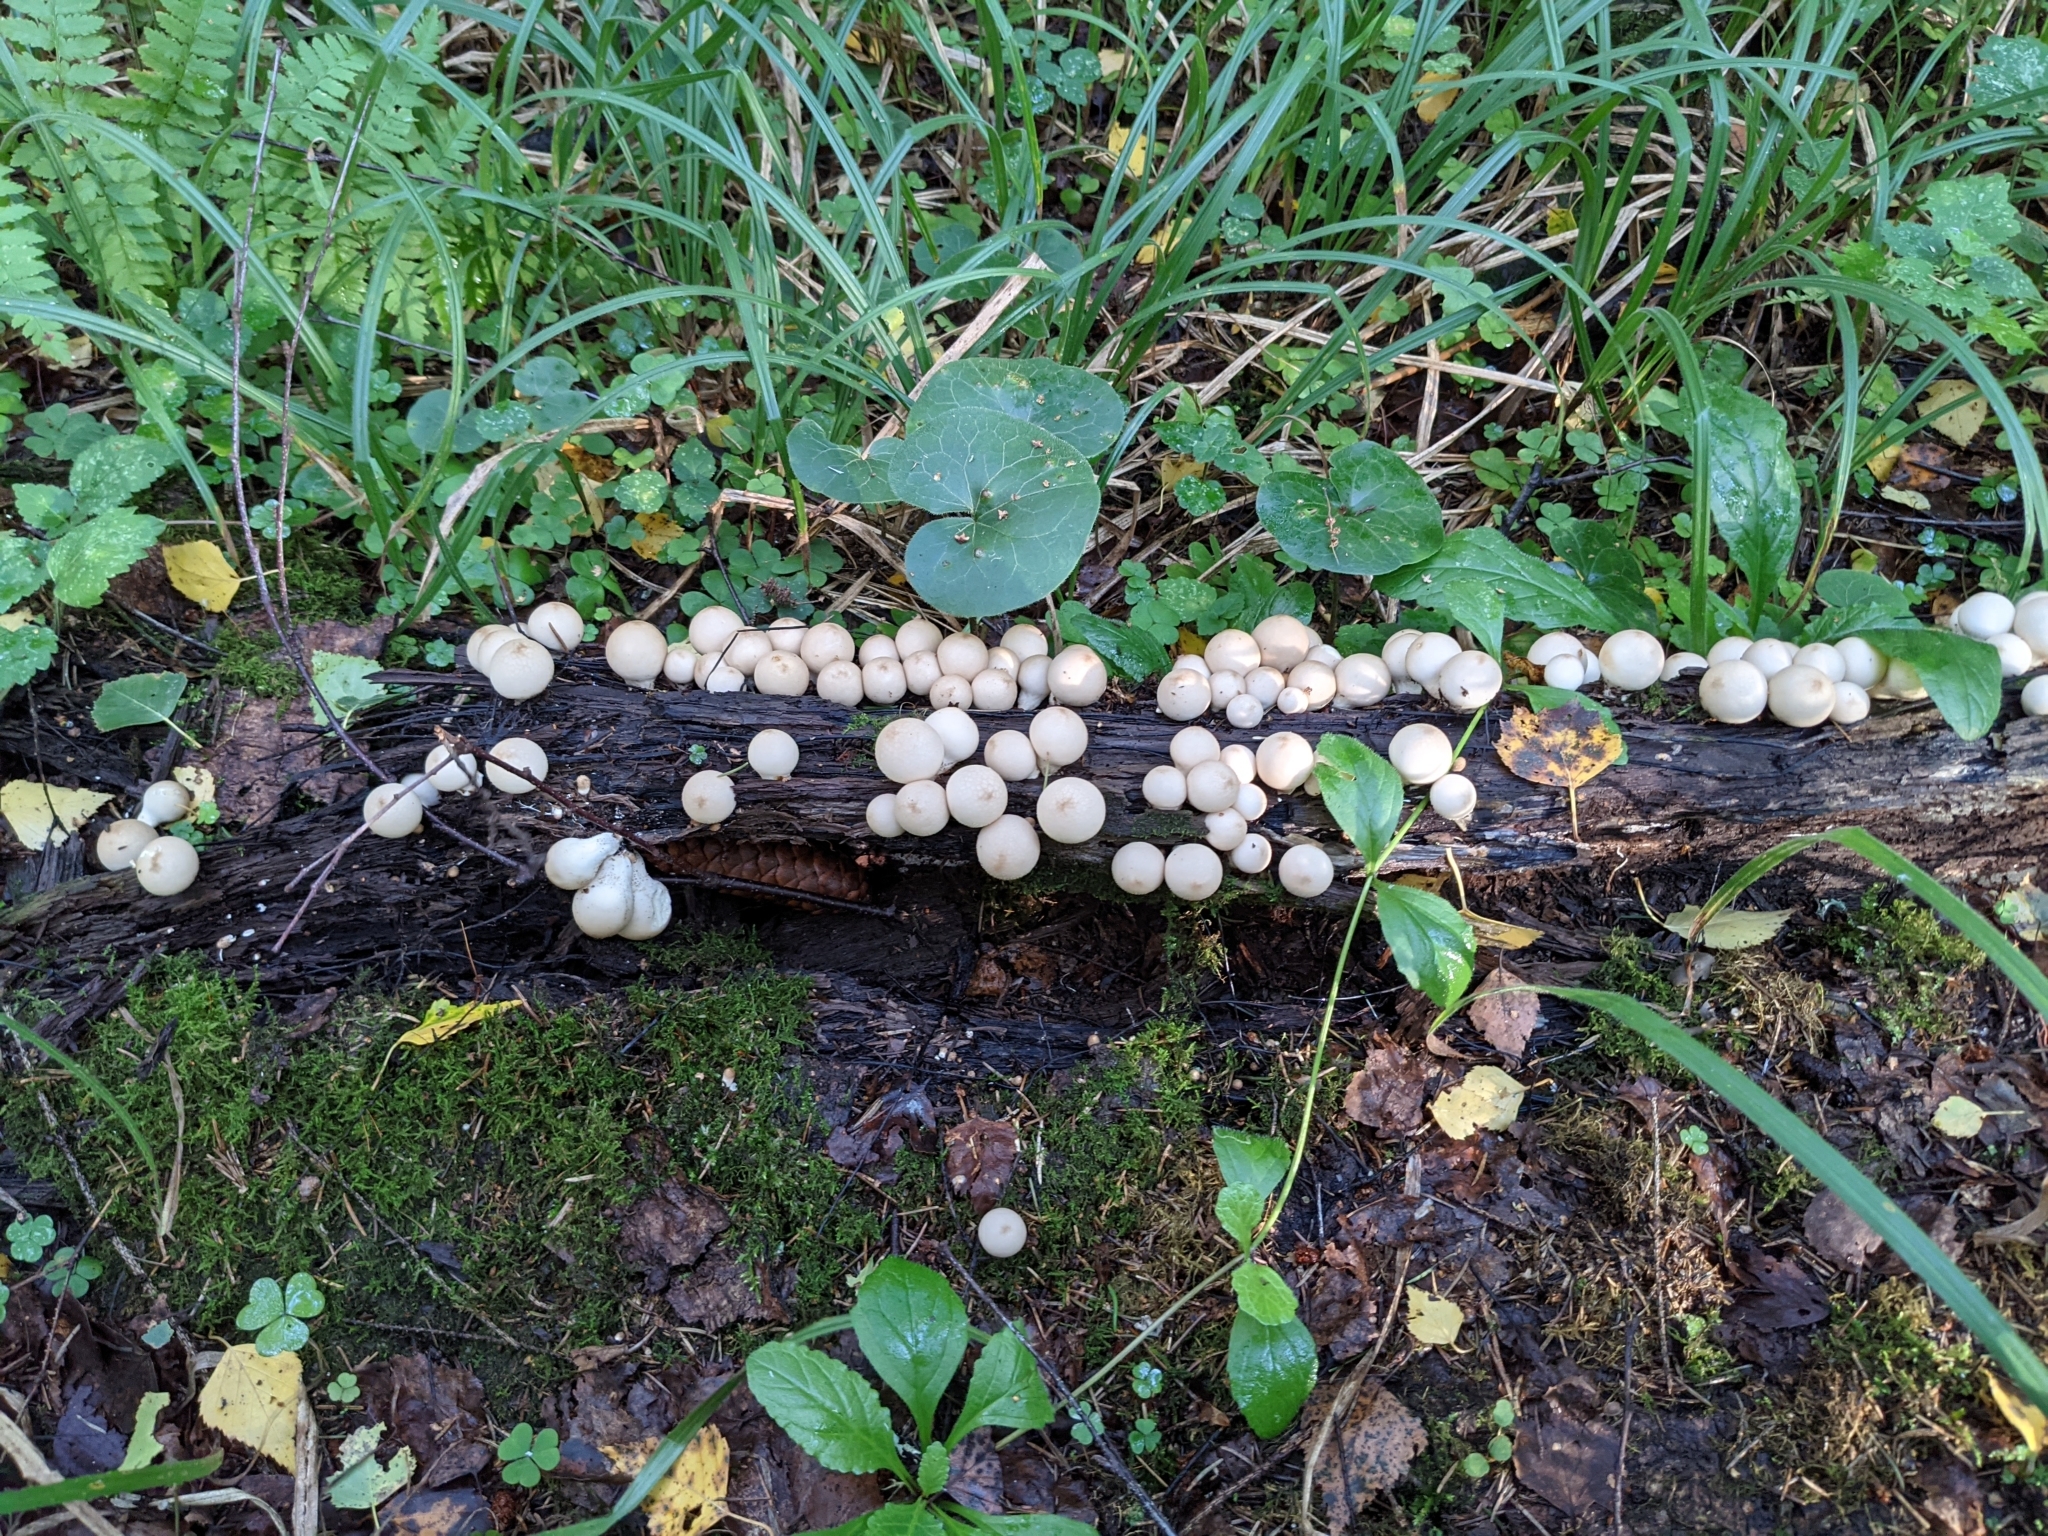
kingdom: Fungi
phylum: Basidiomycota
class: Agaricomycetes
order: Agaricales
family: Lycoperdaceae
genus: Apioperdon
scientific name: Apioperdon pyriforme
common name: Pear-shaped puffball
